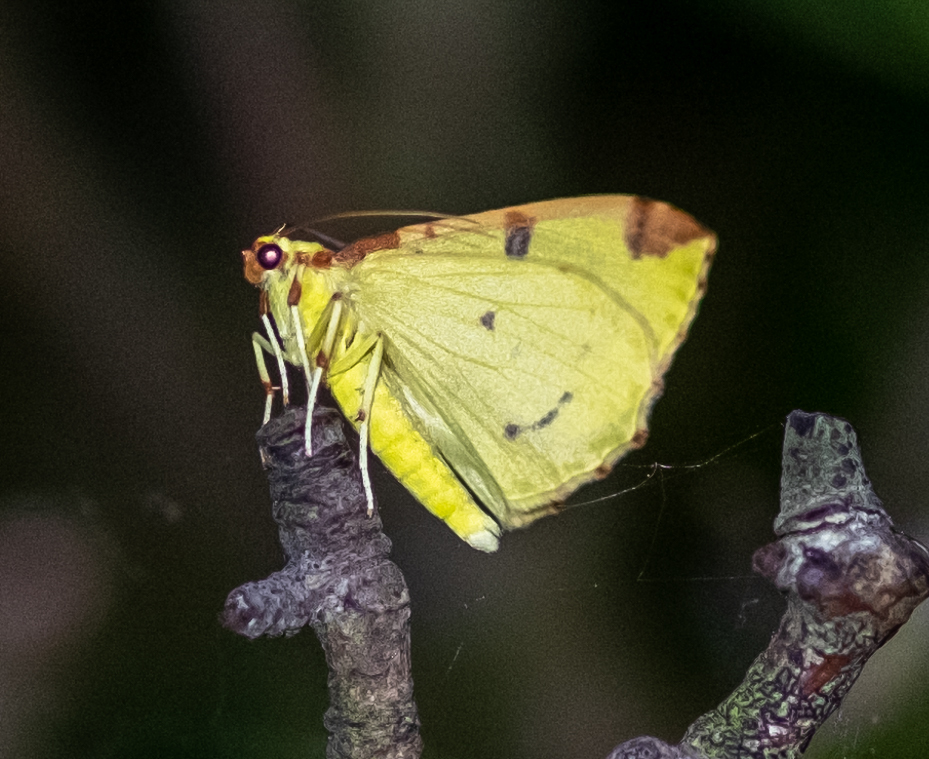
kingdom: Animalia
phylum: Arthropoda
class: Insecta
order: Lepidoptera
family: Geometridae
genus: Opisthograptis
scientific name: Opisthograptis luteolata
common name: Brimstone moth
